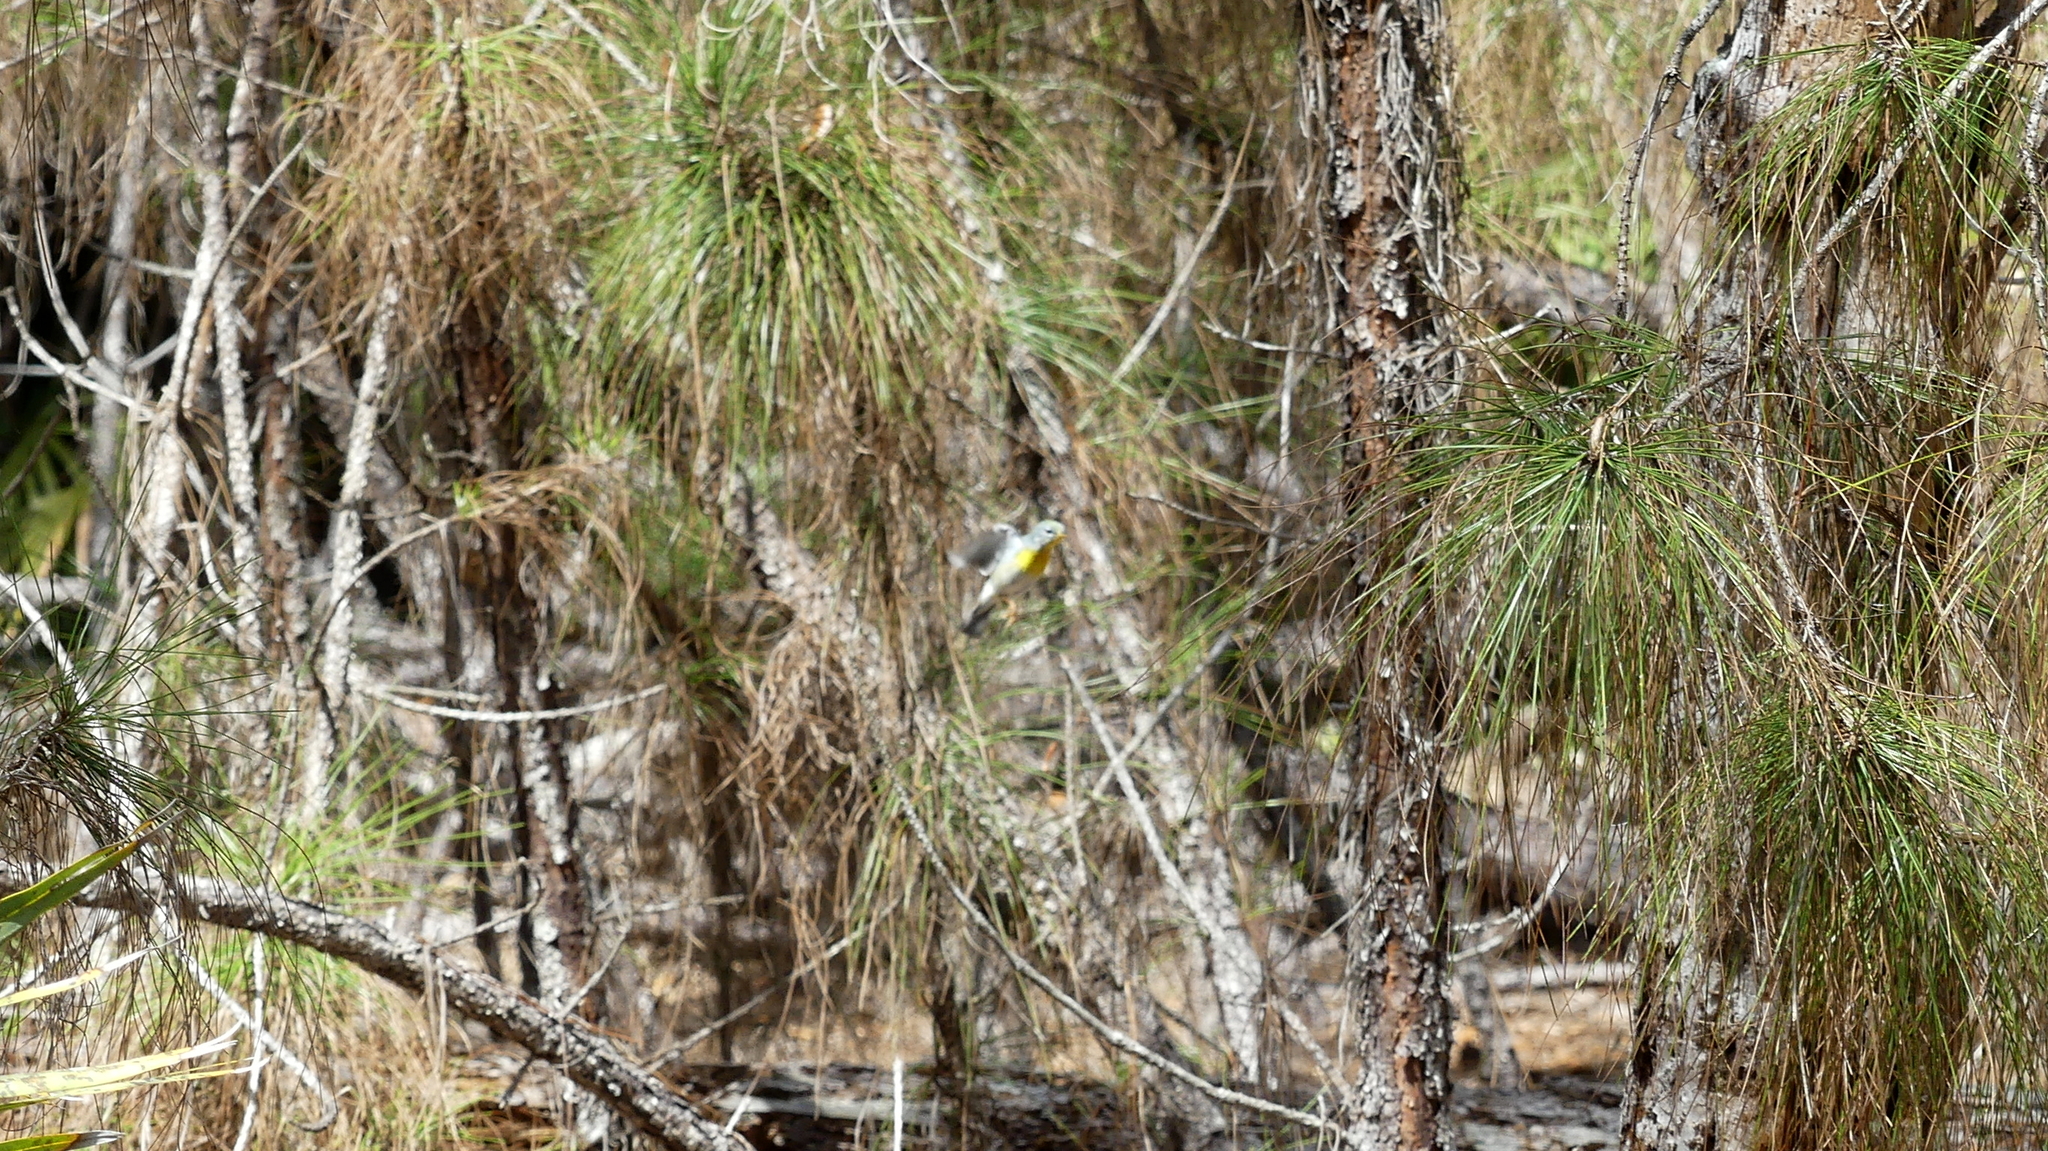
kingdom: Animalia
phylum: Chordata
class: Aves
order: Passeriformes
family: Parulidae
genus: Setophaga
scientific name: Setophaga americana
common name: Northern parula
